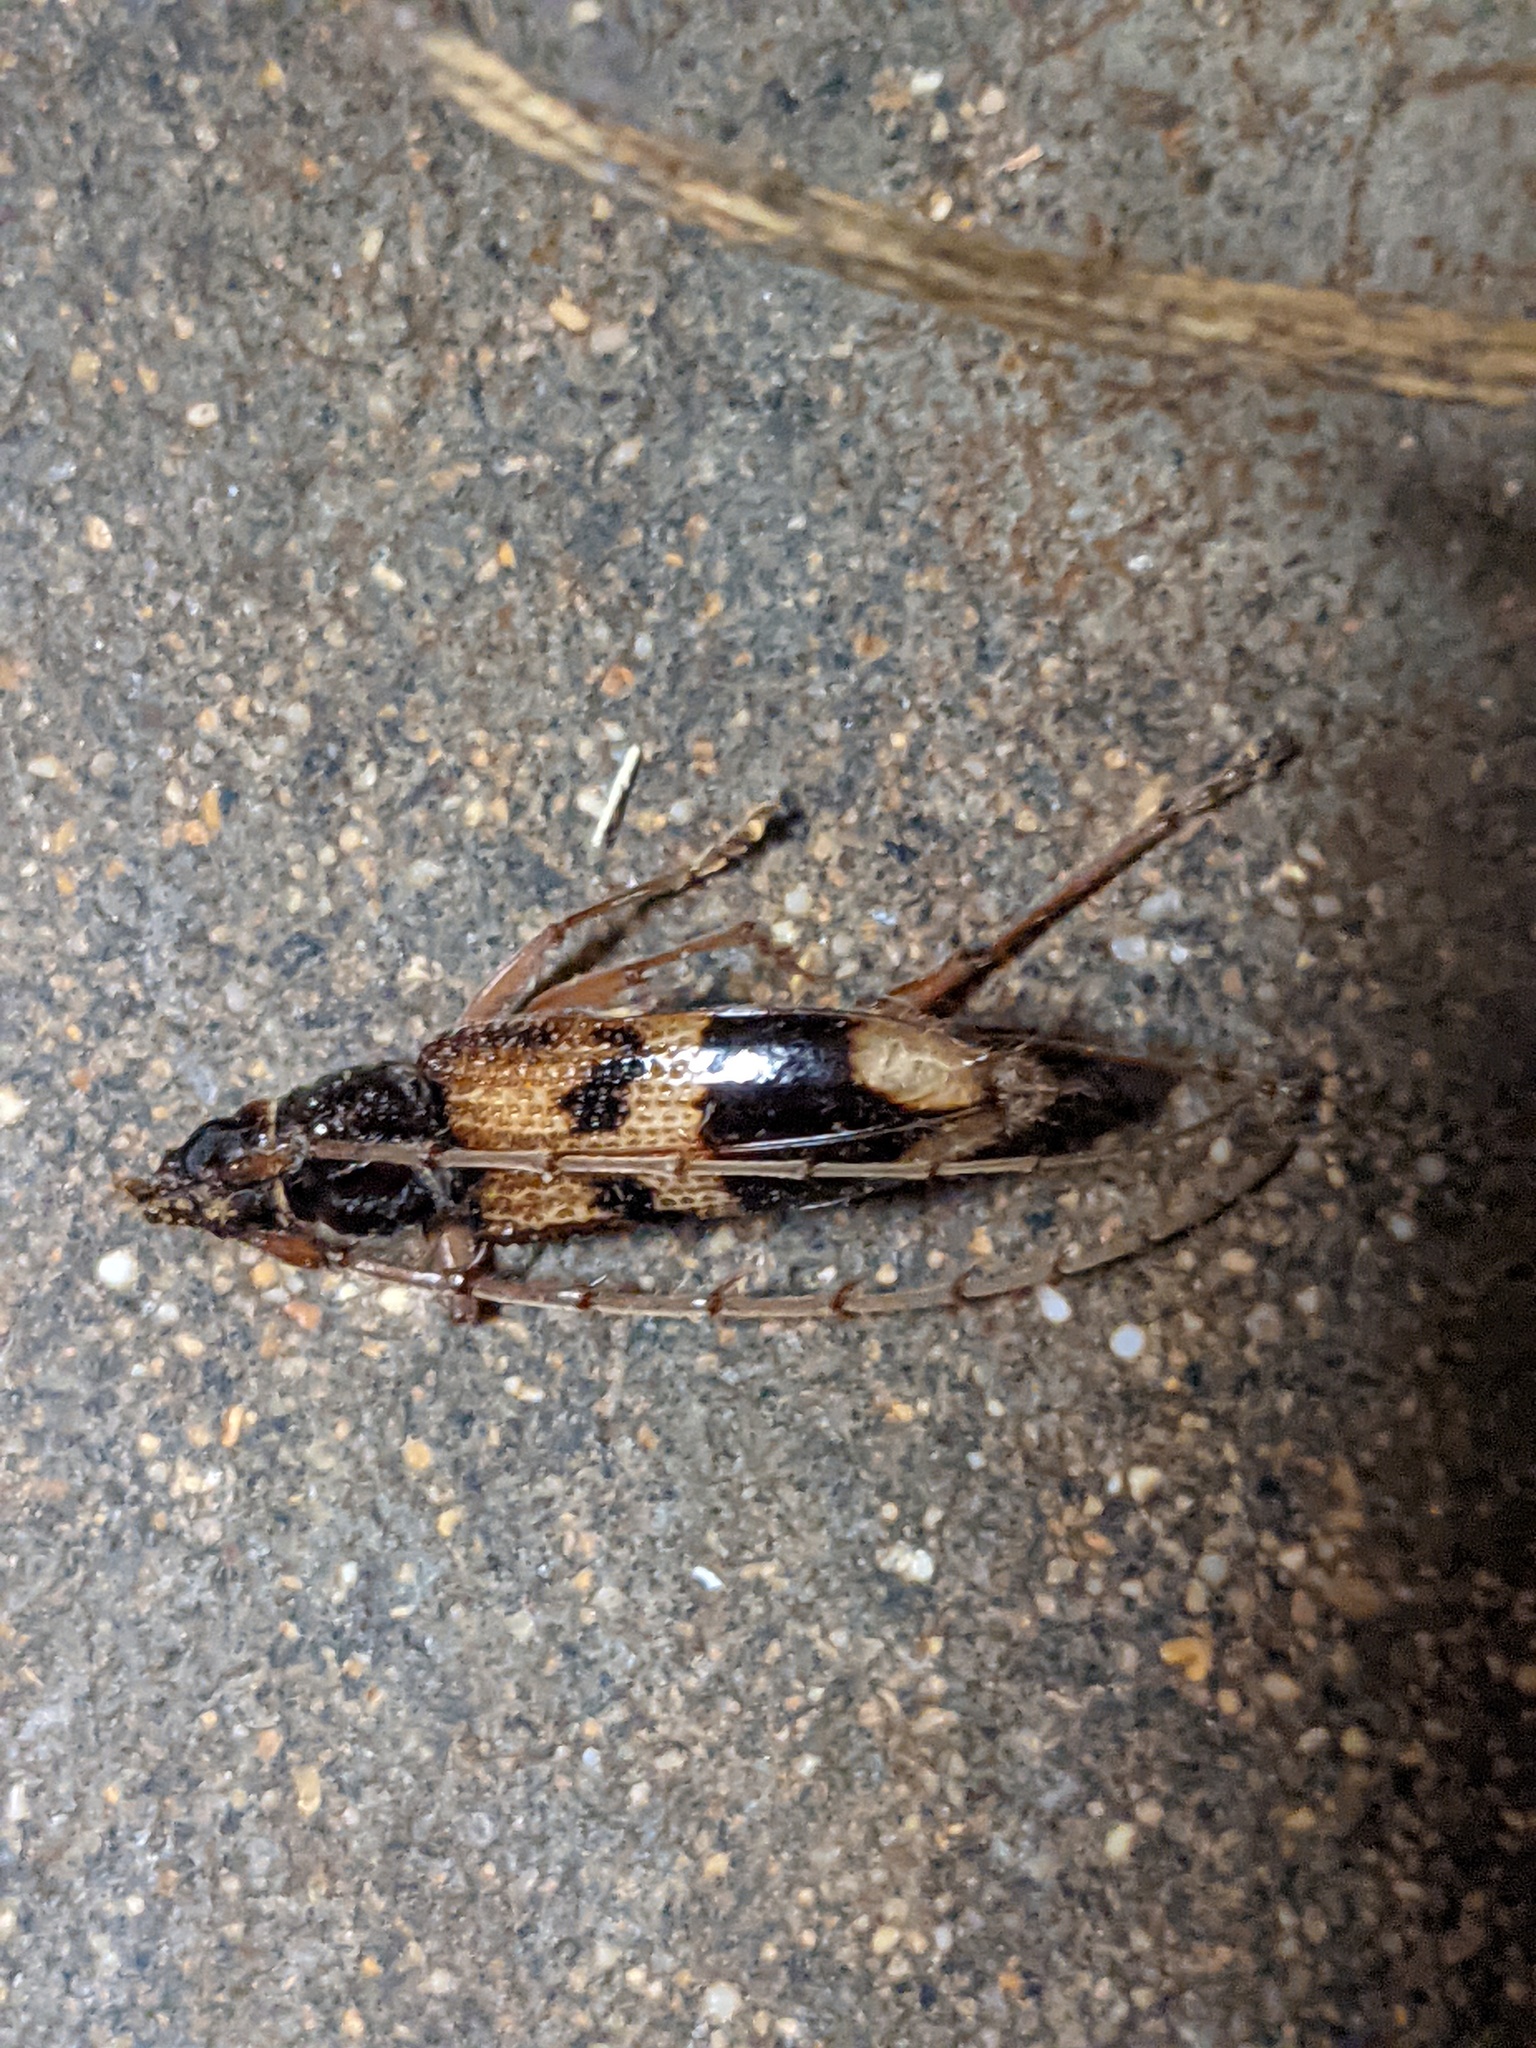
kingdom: Animalia
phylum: Arthropoda
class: Insecta
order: Coleoptera
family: Cerambycidae
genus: Phoracantha
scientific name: Phoracantha recurva
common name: Eucalyptus longhorned borer
